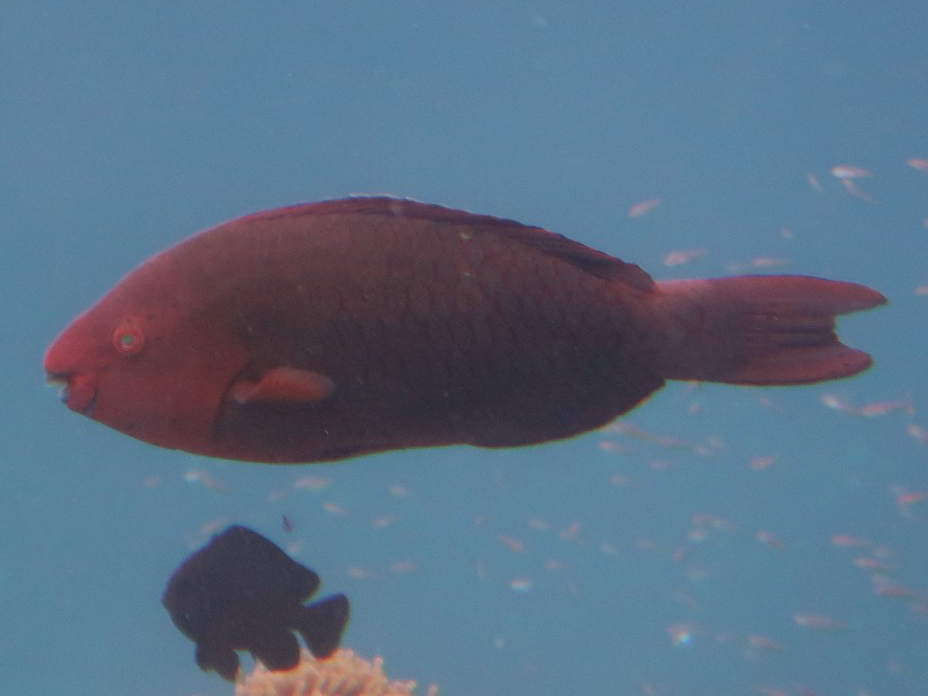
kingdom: Animalia
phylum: Chordata
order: Perciformes
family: Scaridae
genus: Scarus
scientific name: Scarus prasiognathos
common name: Singapore parrotfish
